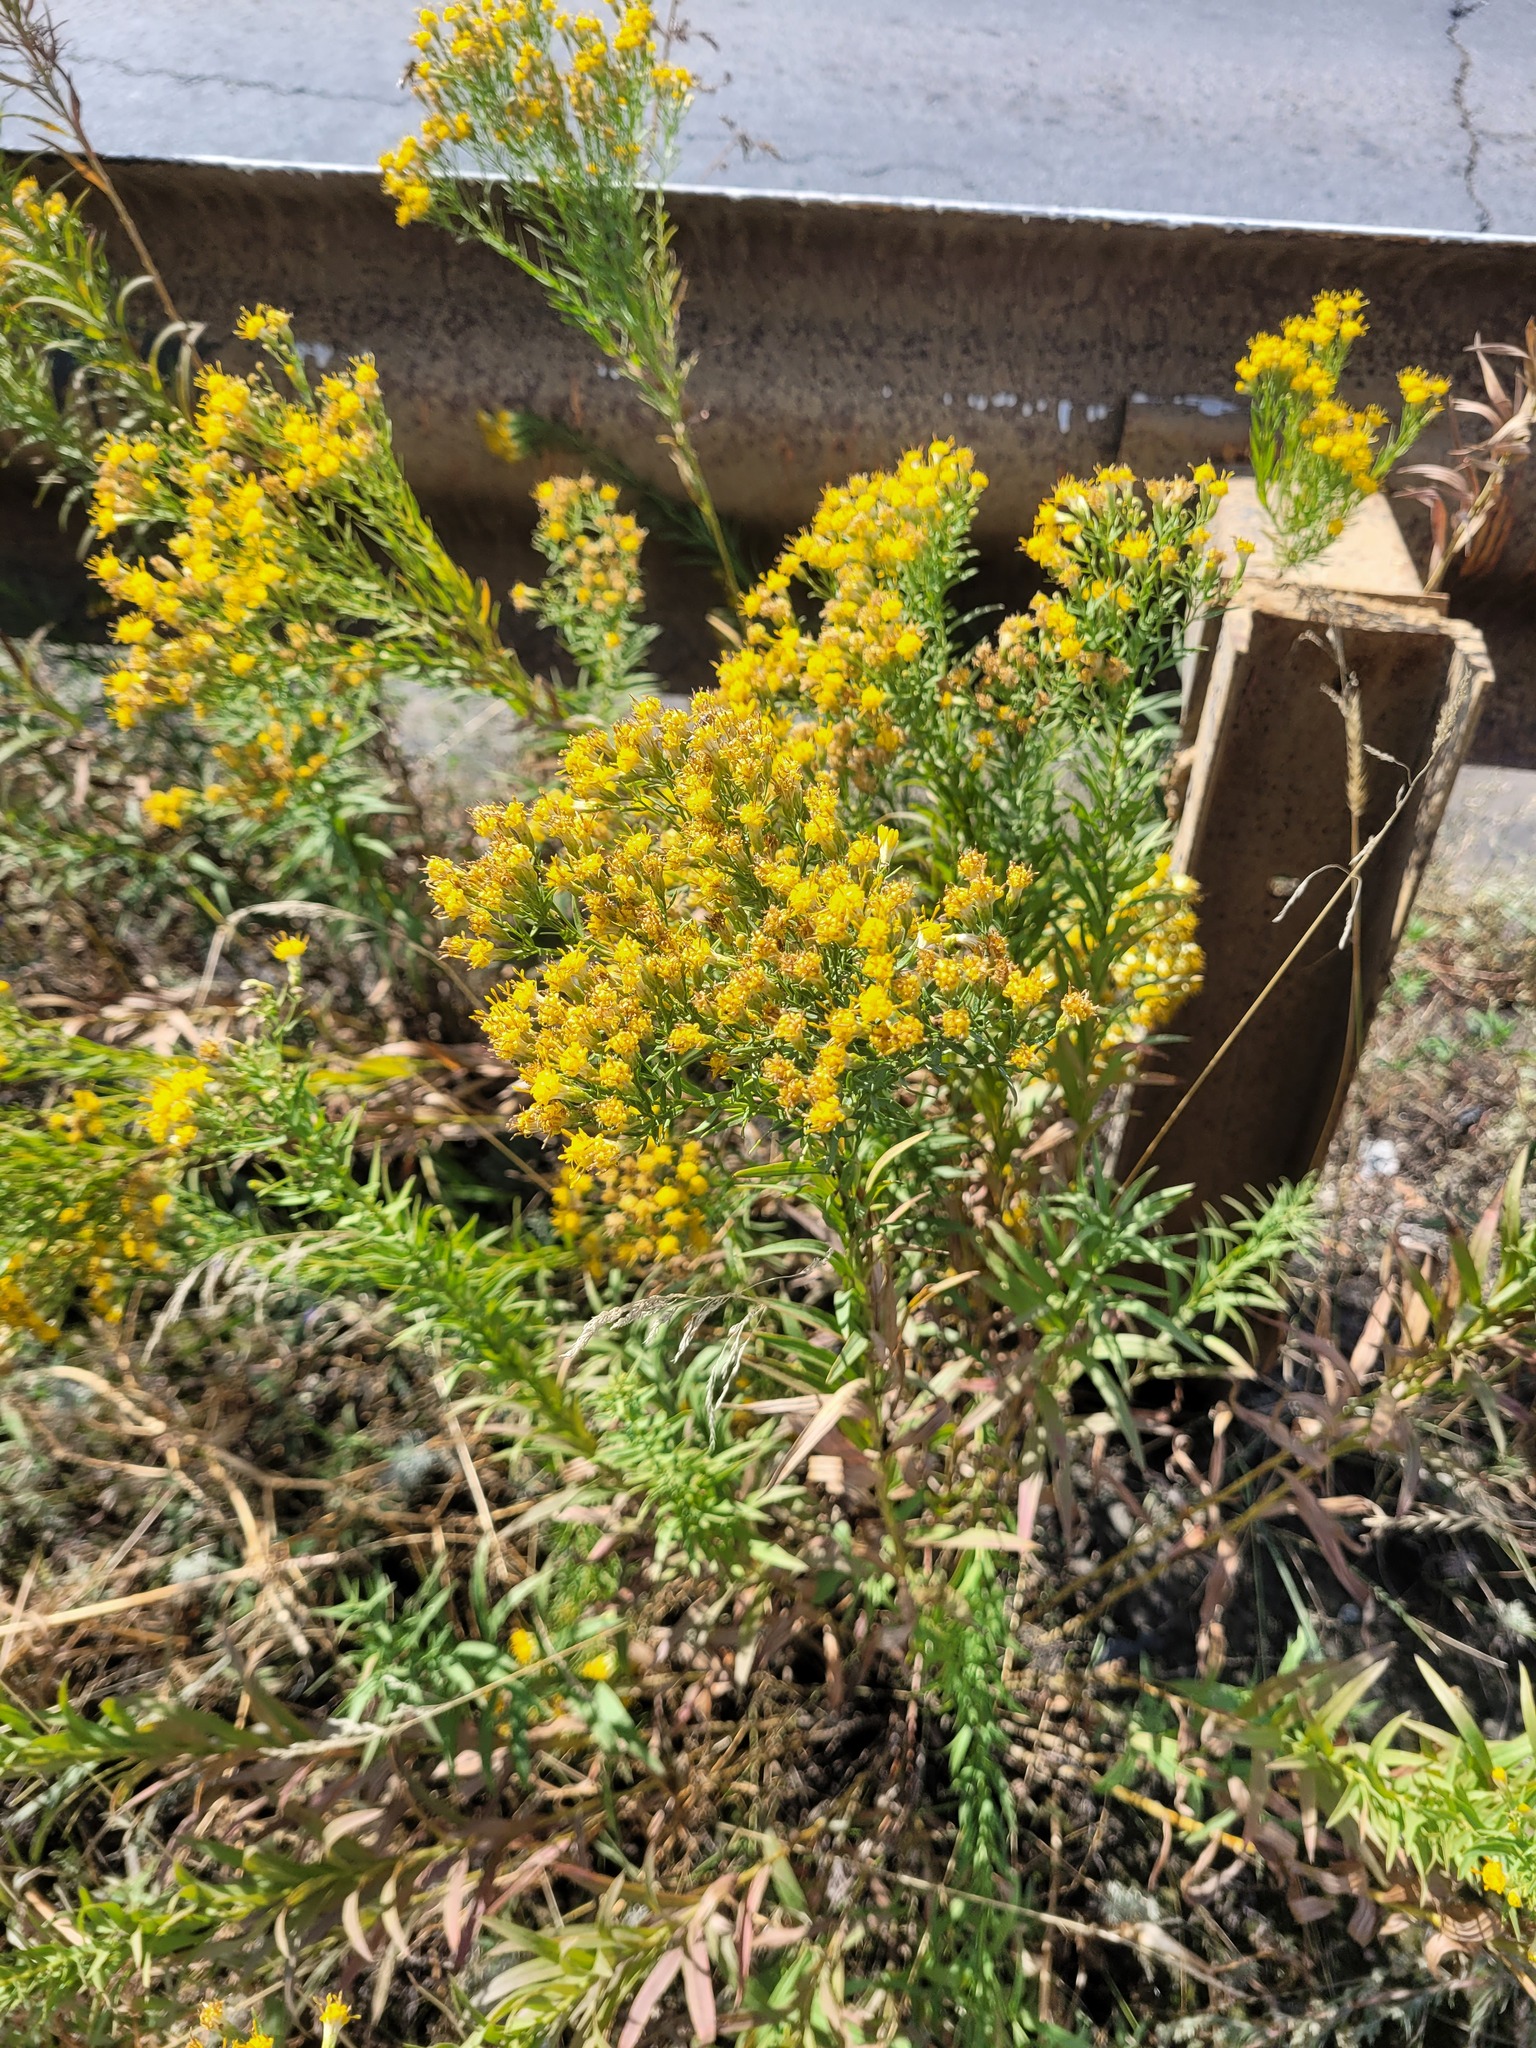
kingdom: Plantae
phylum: Tracheophyta
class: Magnoliopsida
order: Asterales
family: Asteraceae
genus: Galatella
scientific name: Galatella biflora
